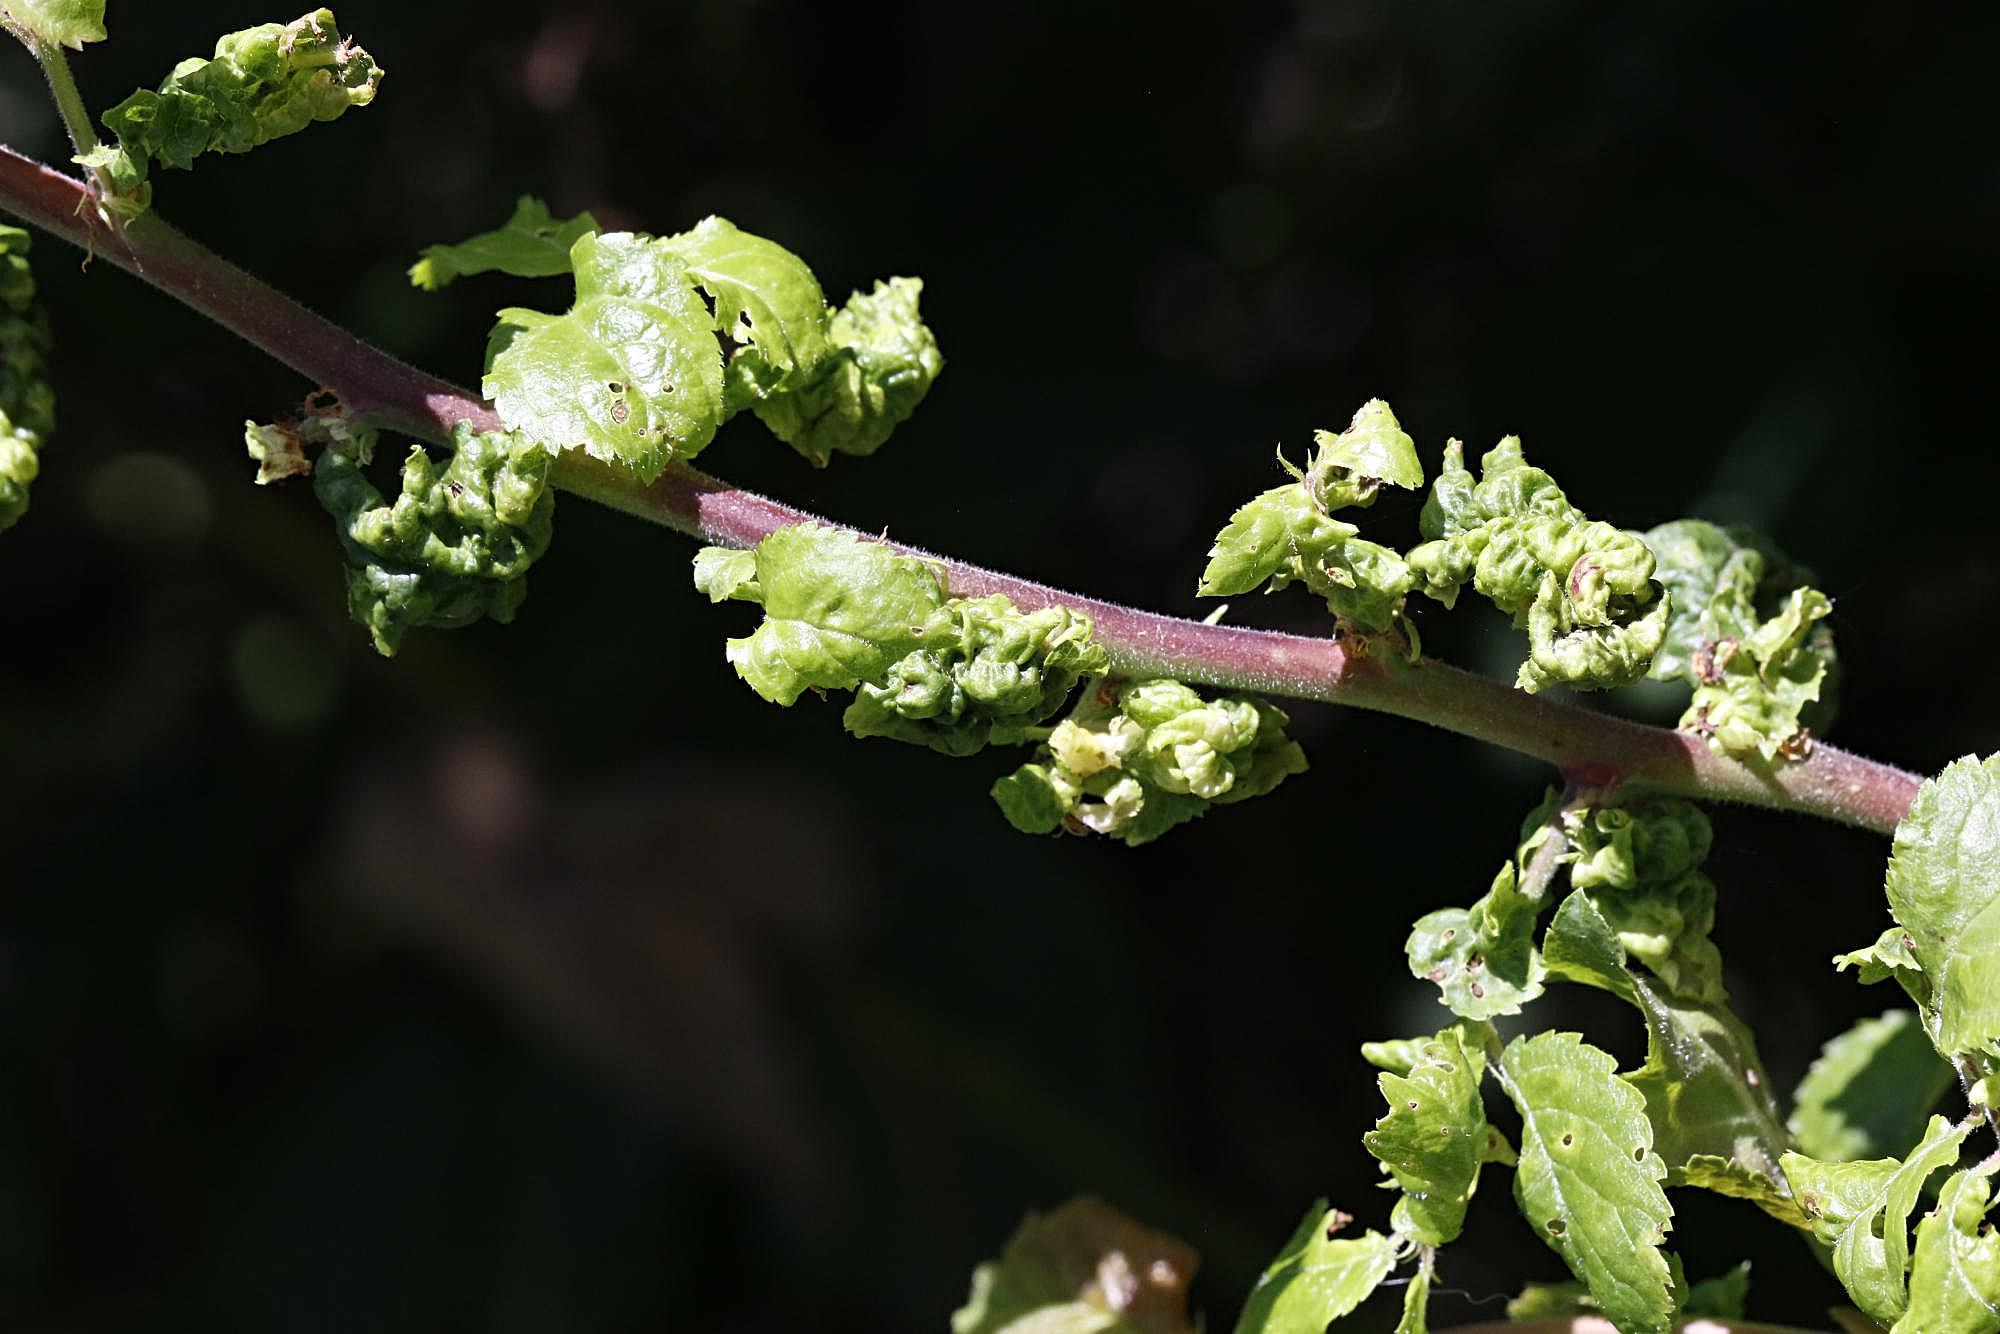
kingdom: Animalia
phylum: Arthropoda
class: Insecta
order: Hemiptera
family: Aphididae
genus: Brachycaudus
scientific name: Brachycaudus cardui
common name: Thistle aphid
